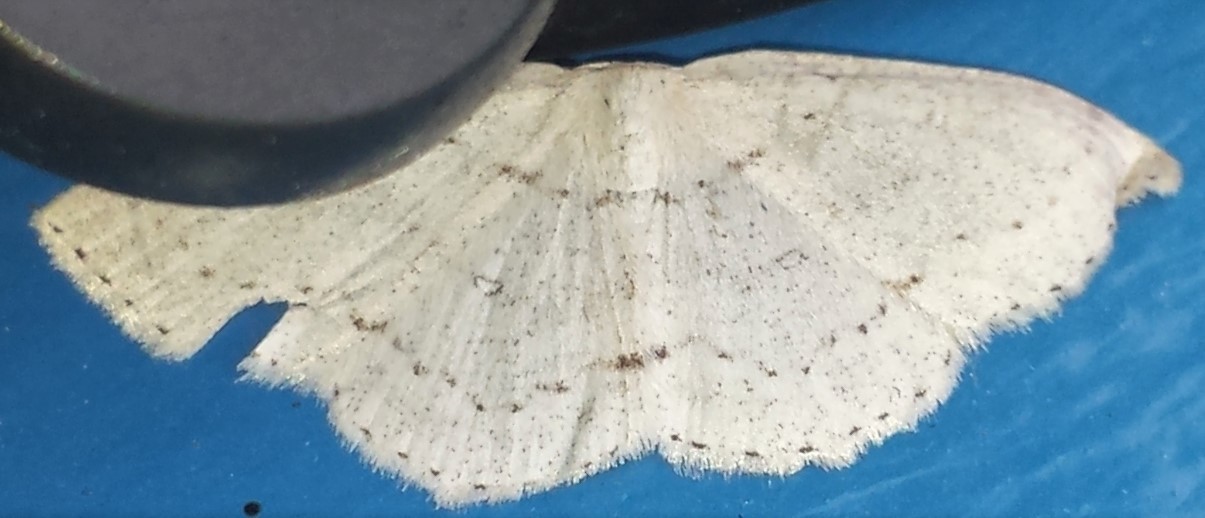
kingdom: Animalia
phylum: Arthropoda
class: Insecta
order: Lepidoptera
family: Geometridae
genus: Cyclophora
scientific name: Cyclophora pendulinaria
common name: Sweet fern geometer
